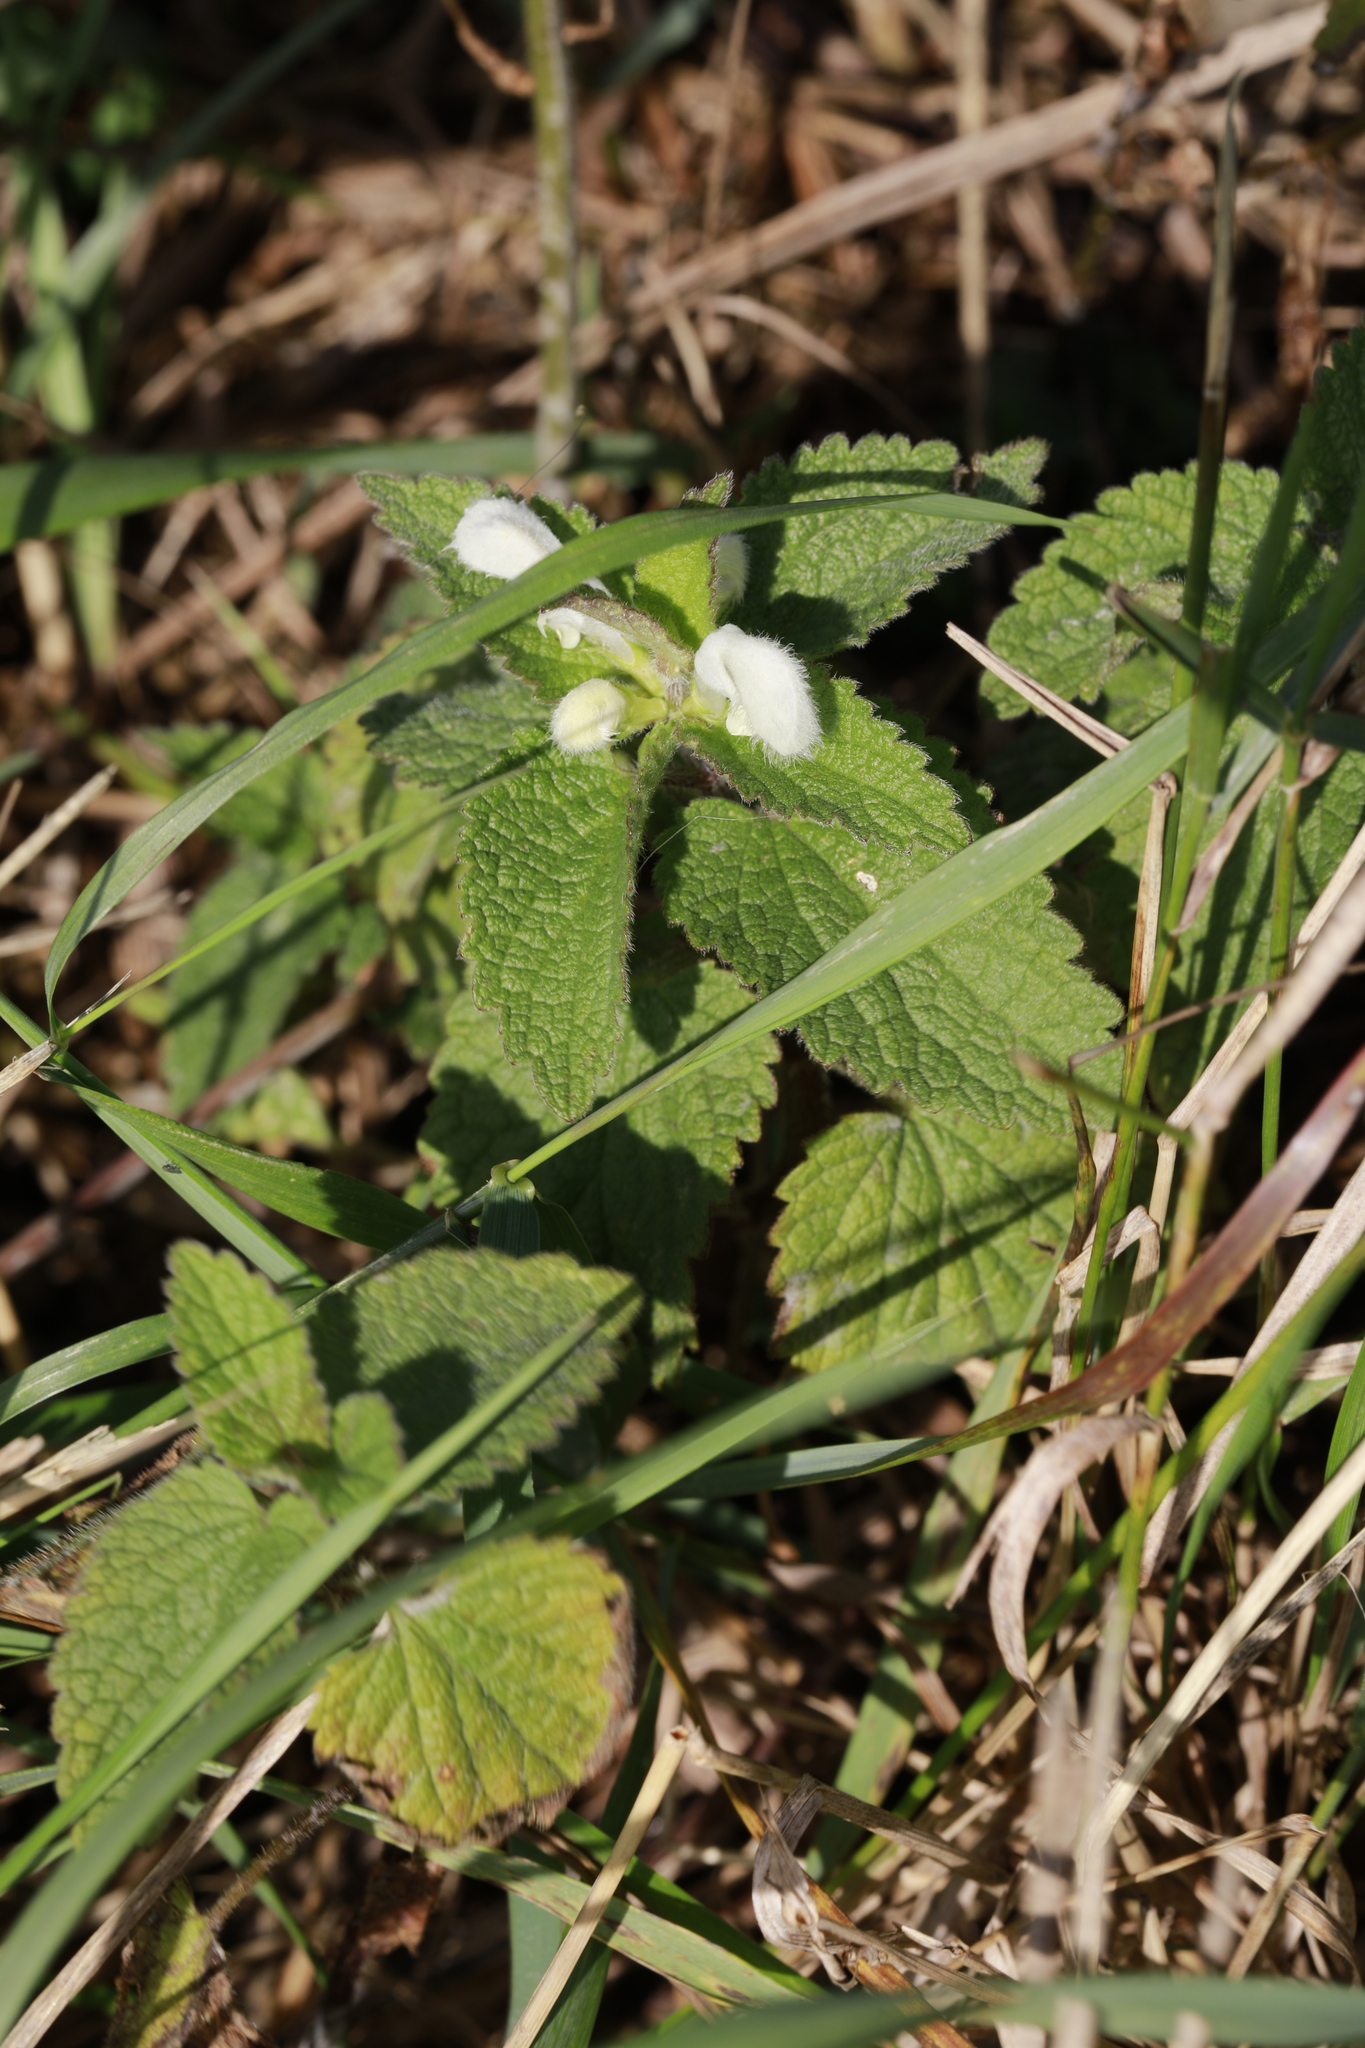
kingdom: Plantae
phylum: Tracheophyta
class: Magnoliopsida
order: Lamiales
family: Lamiaceae
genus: Lamium
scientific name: Lamium album
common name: White dead-nettle
